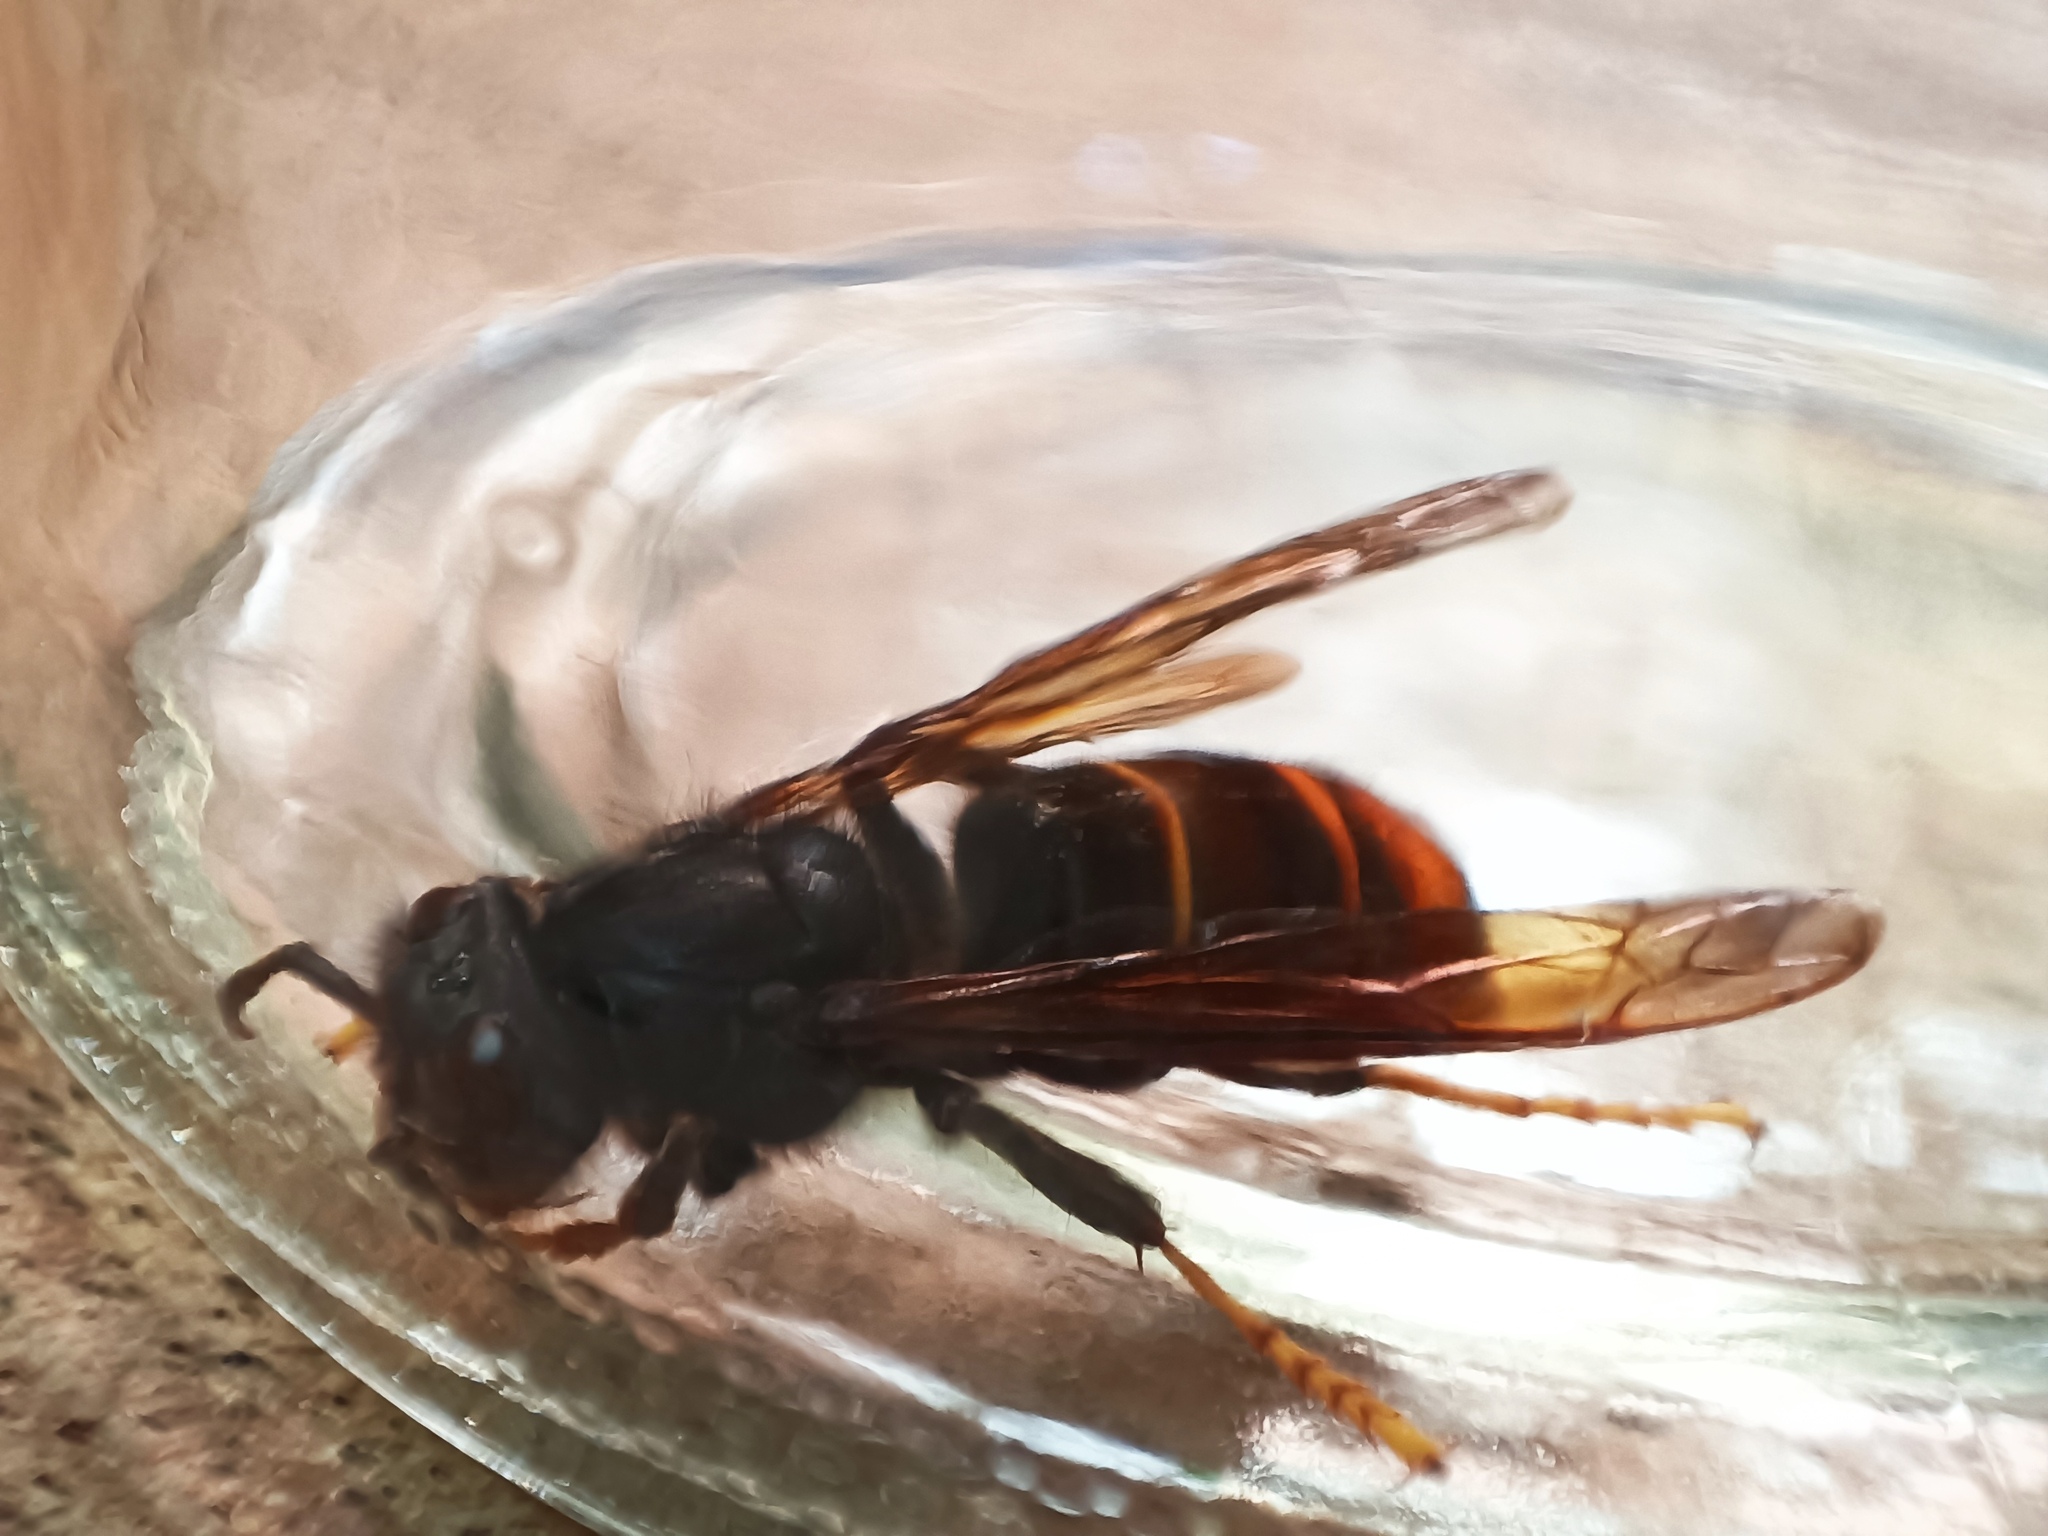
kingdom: Animalia
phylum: Arthropoda
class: Insecta
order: Hymenoptera
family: Vespidae
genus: Vespa
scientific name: Vespa velutina
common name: Asian hornet
